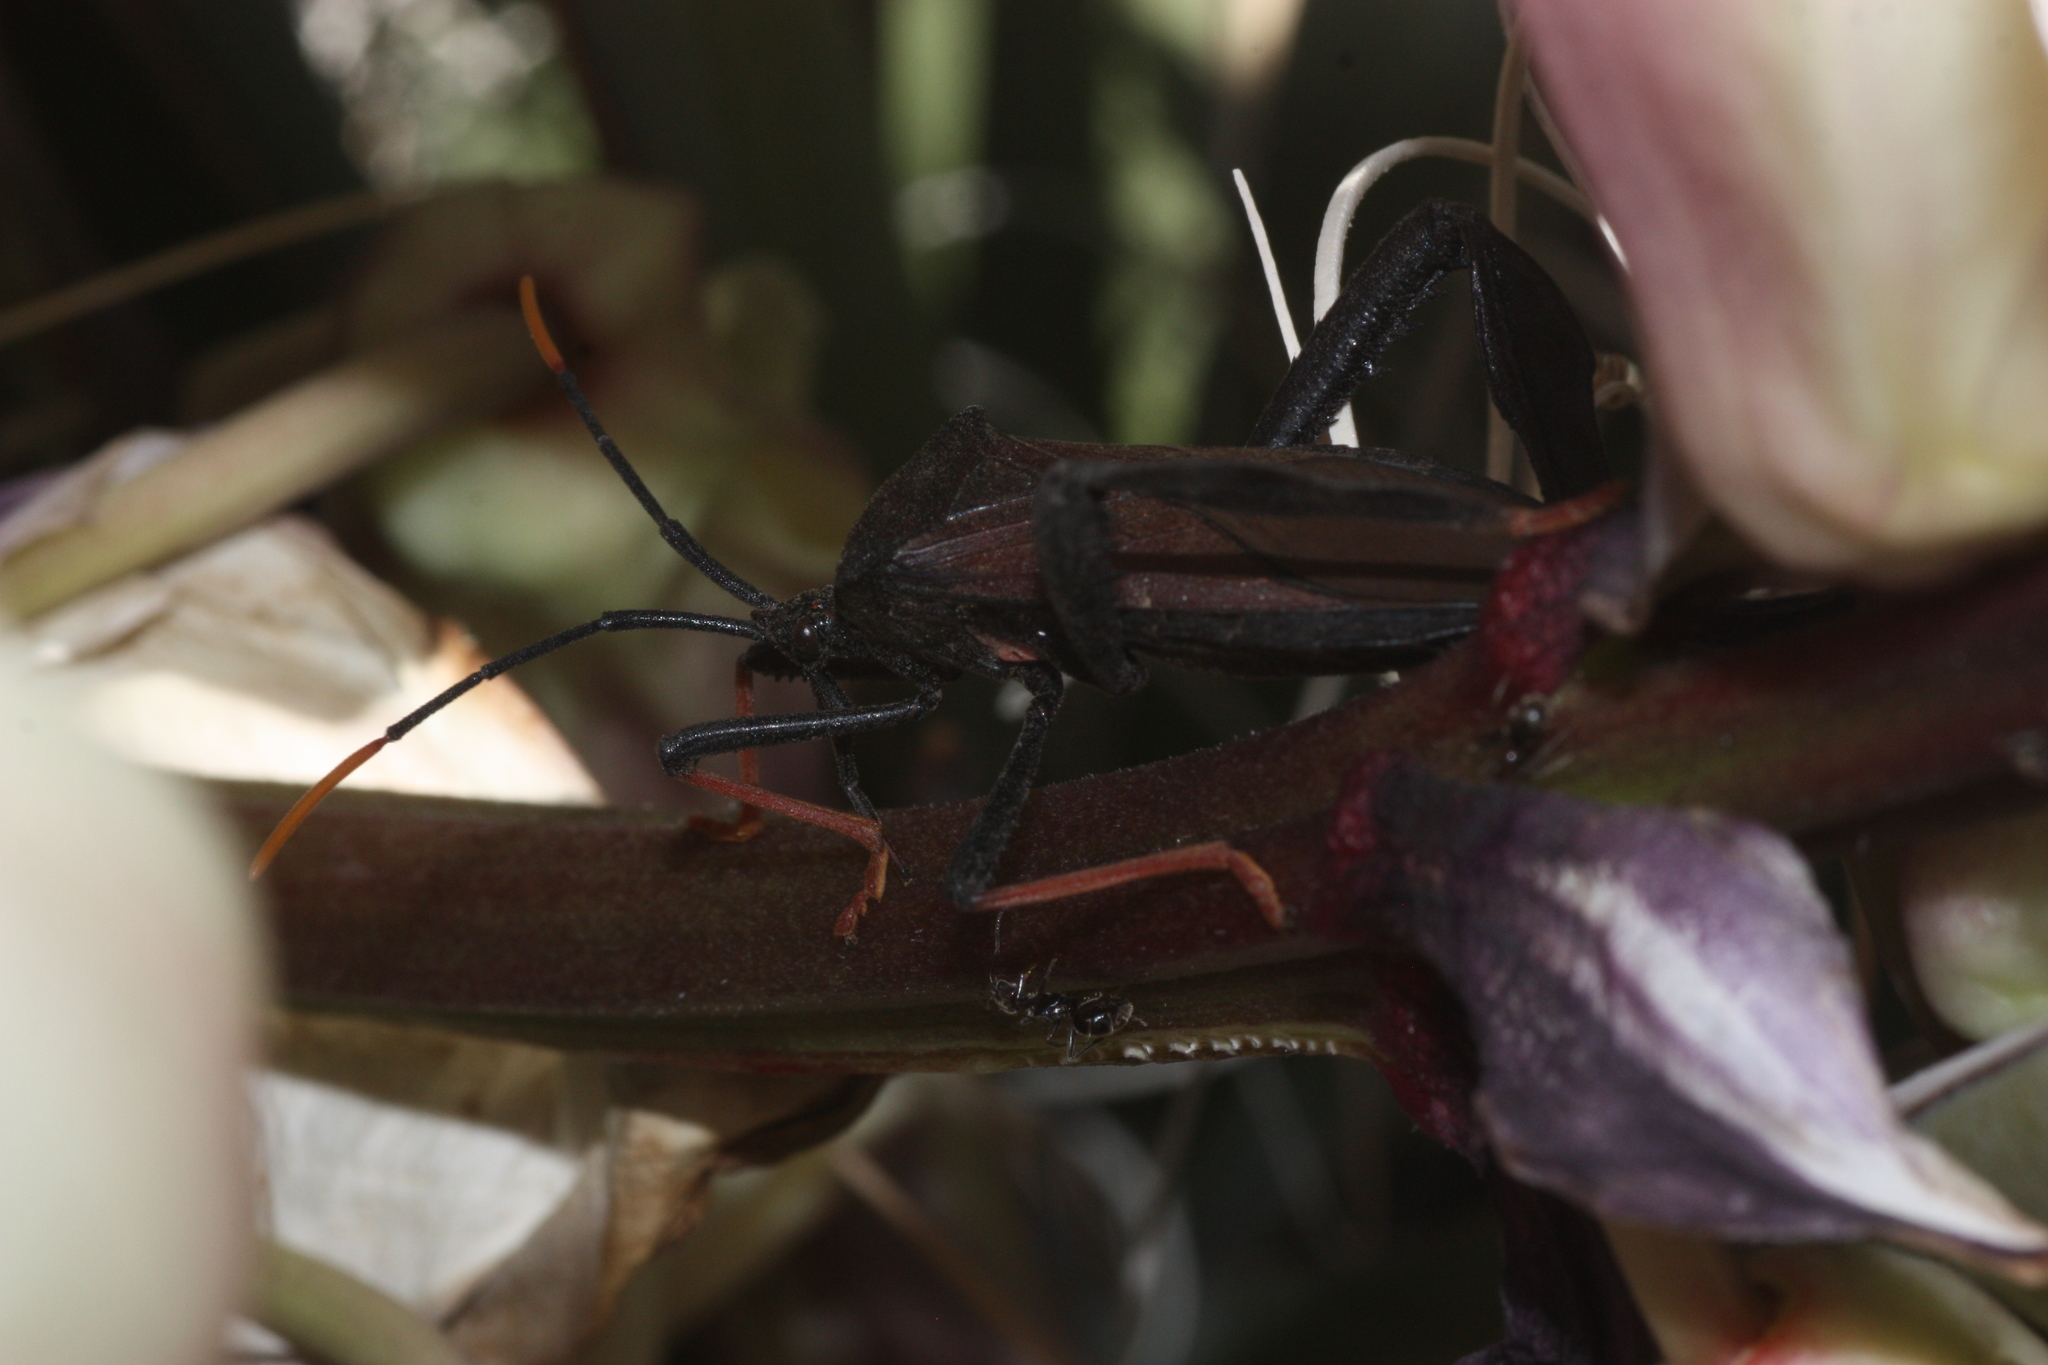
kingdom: Animalia
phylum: Arthropoda
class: Insecta
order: Hemiptera
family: Coreidae
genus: Acanthocephala
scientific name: Acanthocephala thomasi
